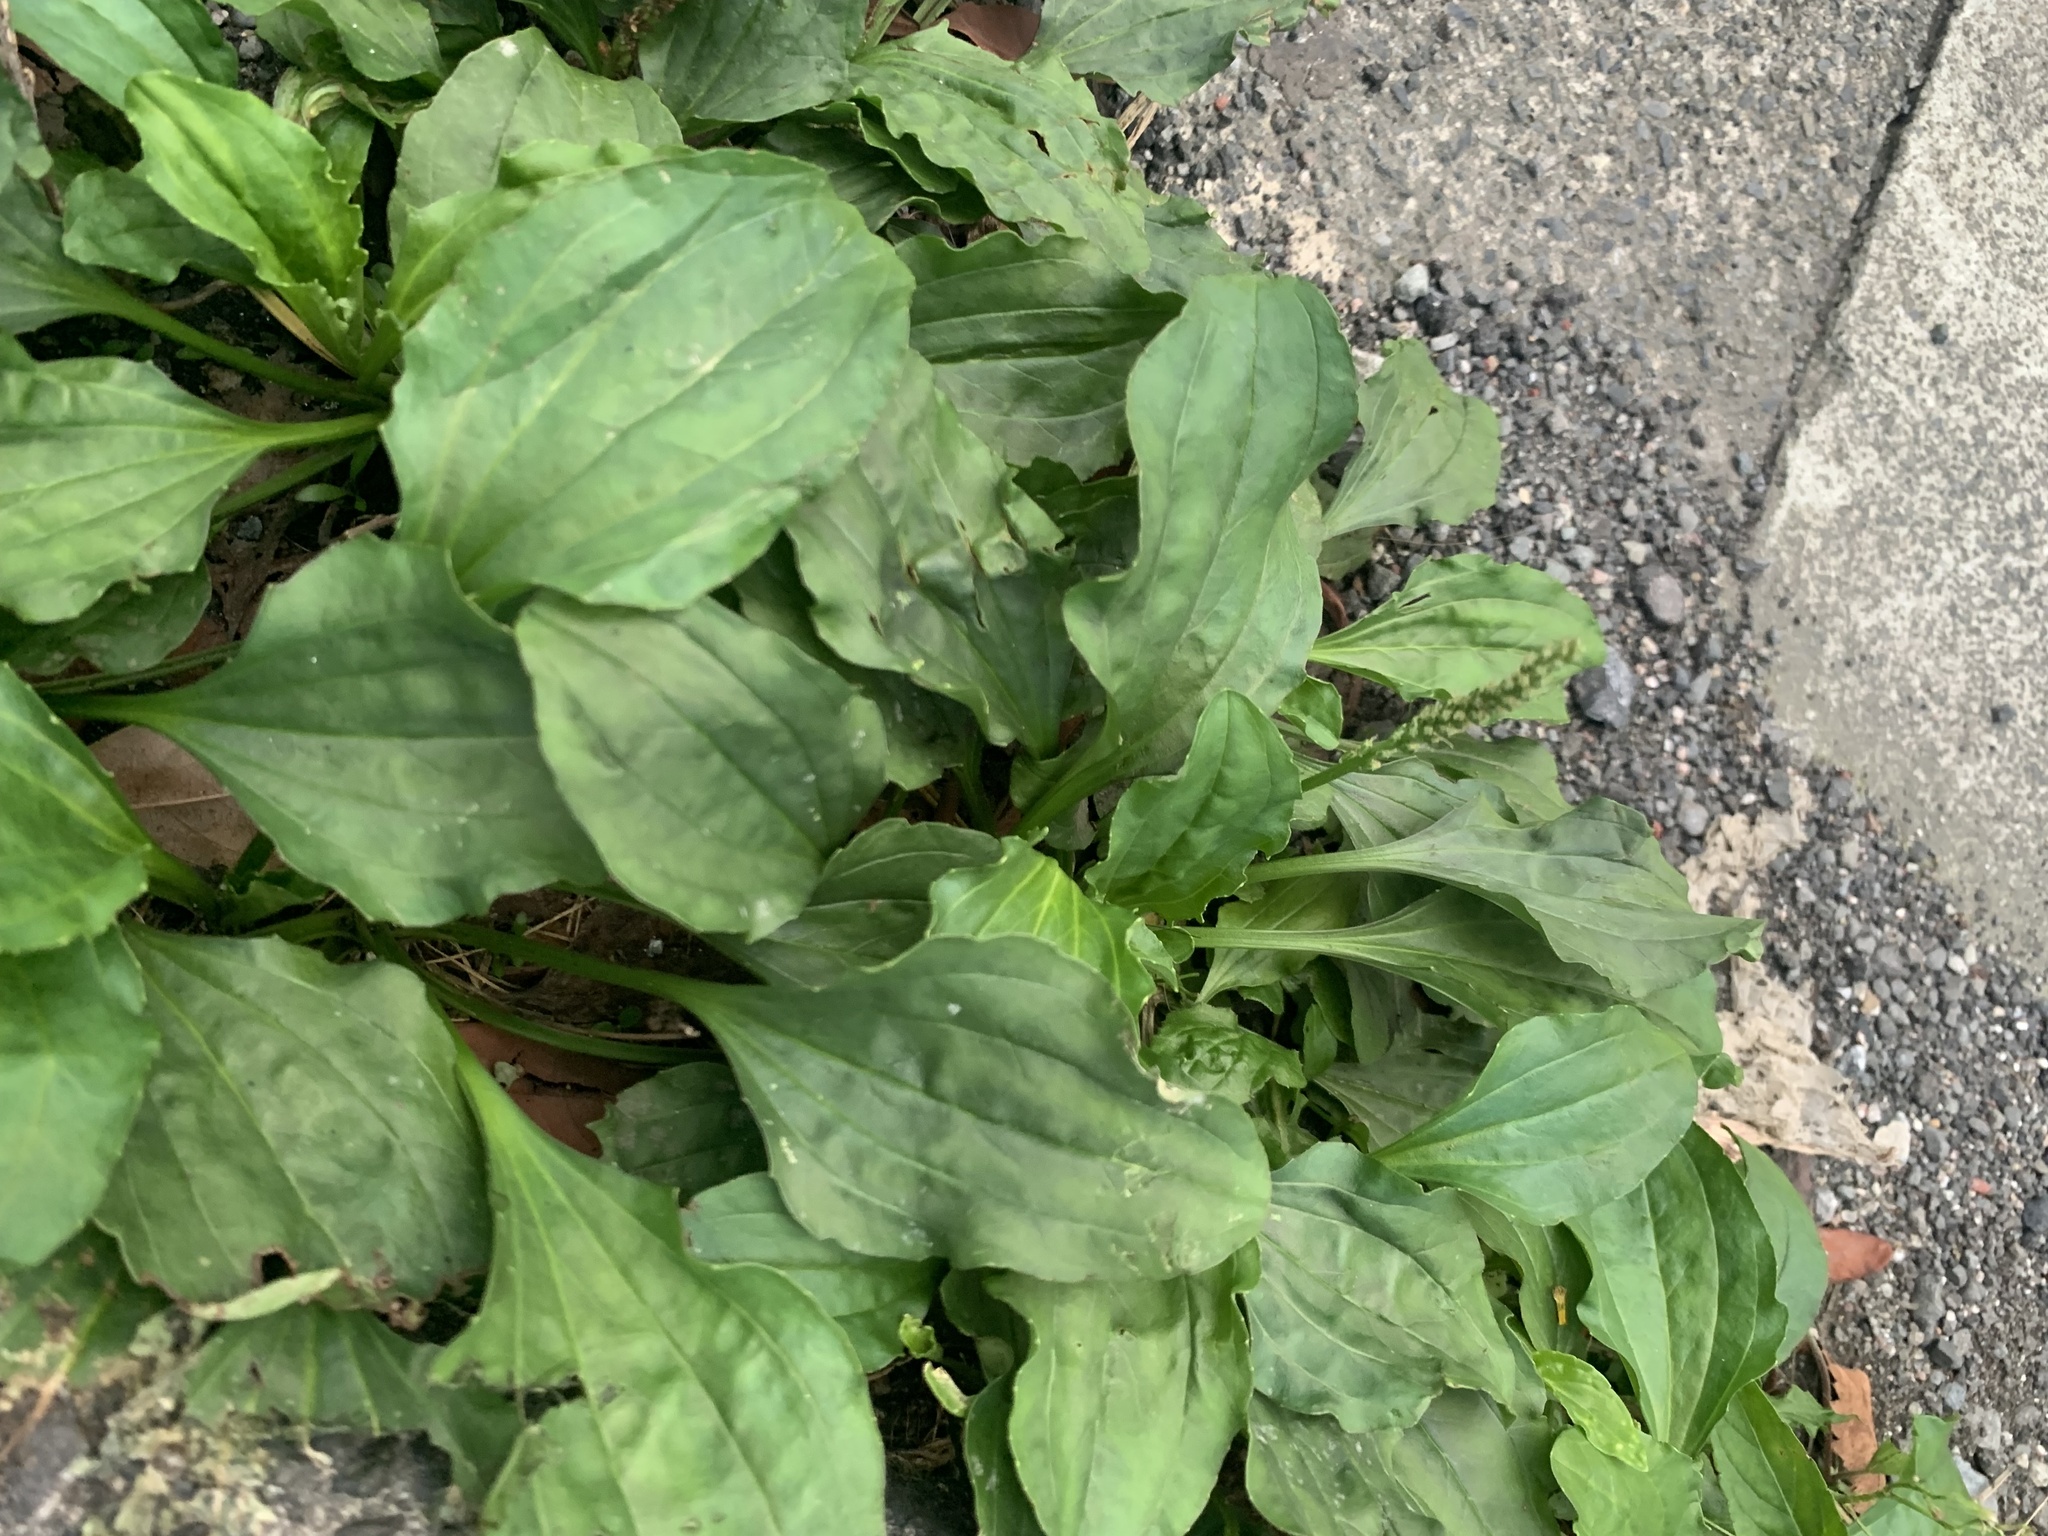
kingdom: Plantae
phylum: Tracheophyta
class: Magnoliopsida
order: Lamiales
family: Plantaginaceae
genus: Plantago
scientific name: Plantago asiatica
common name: Psyllium
